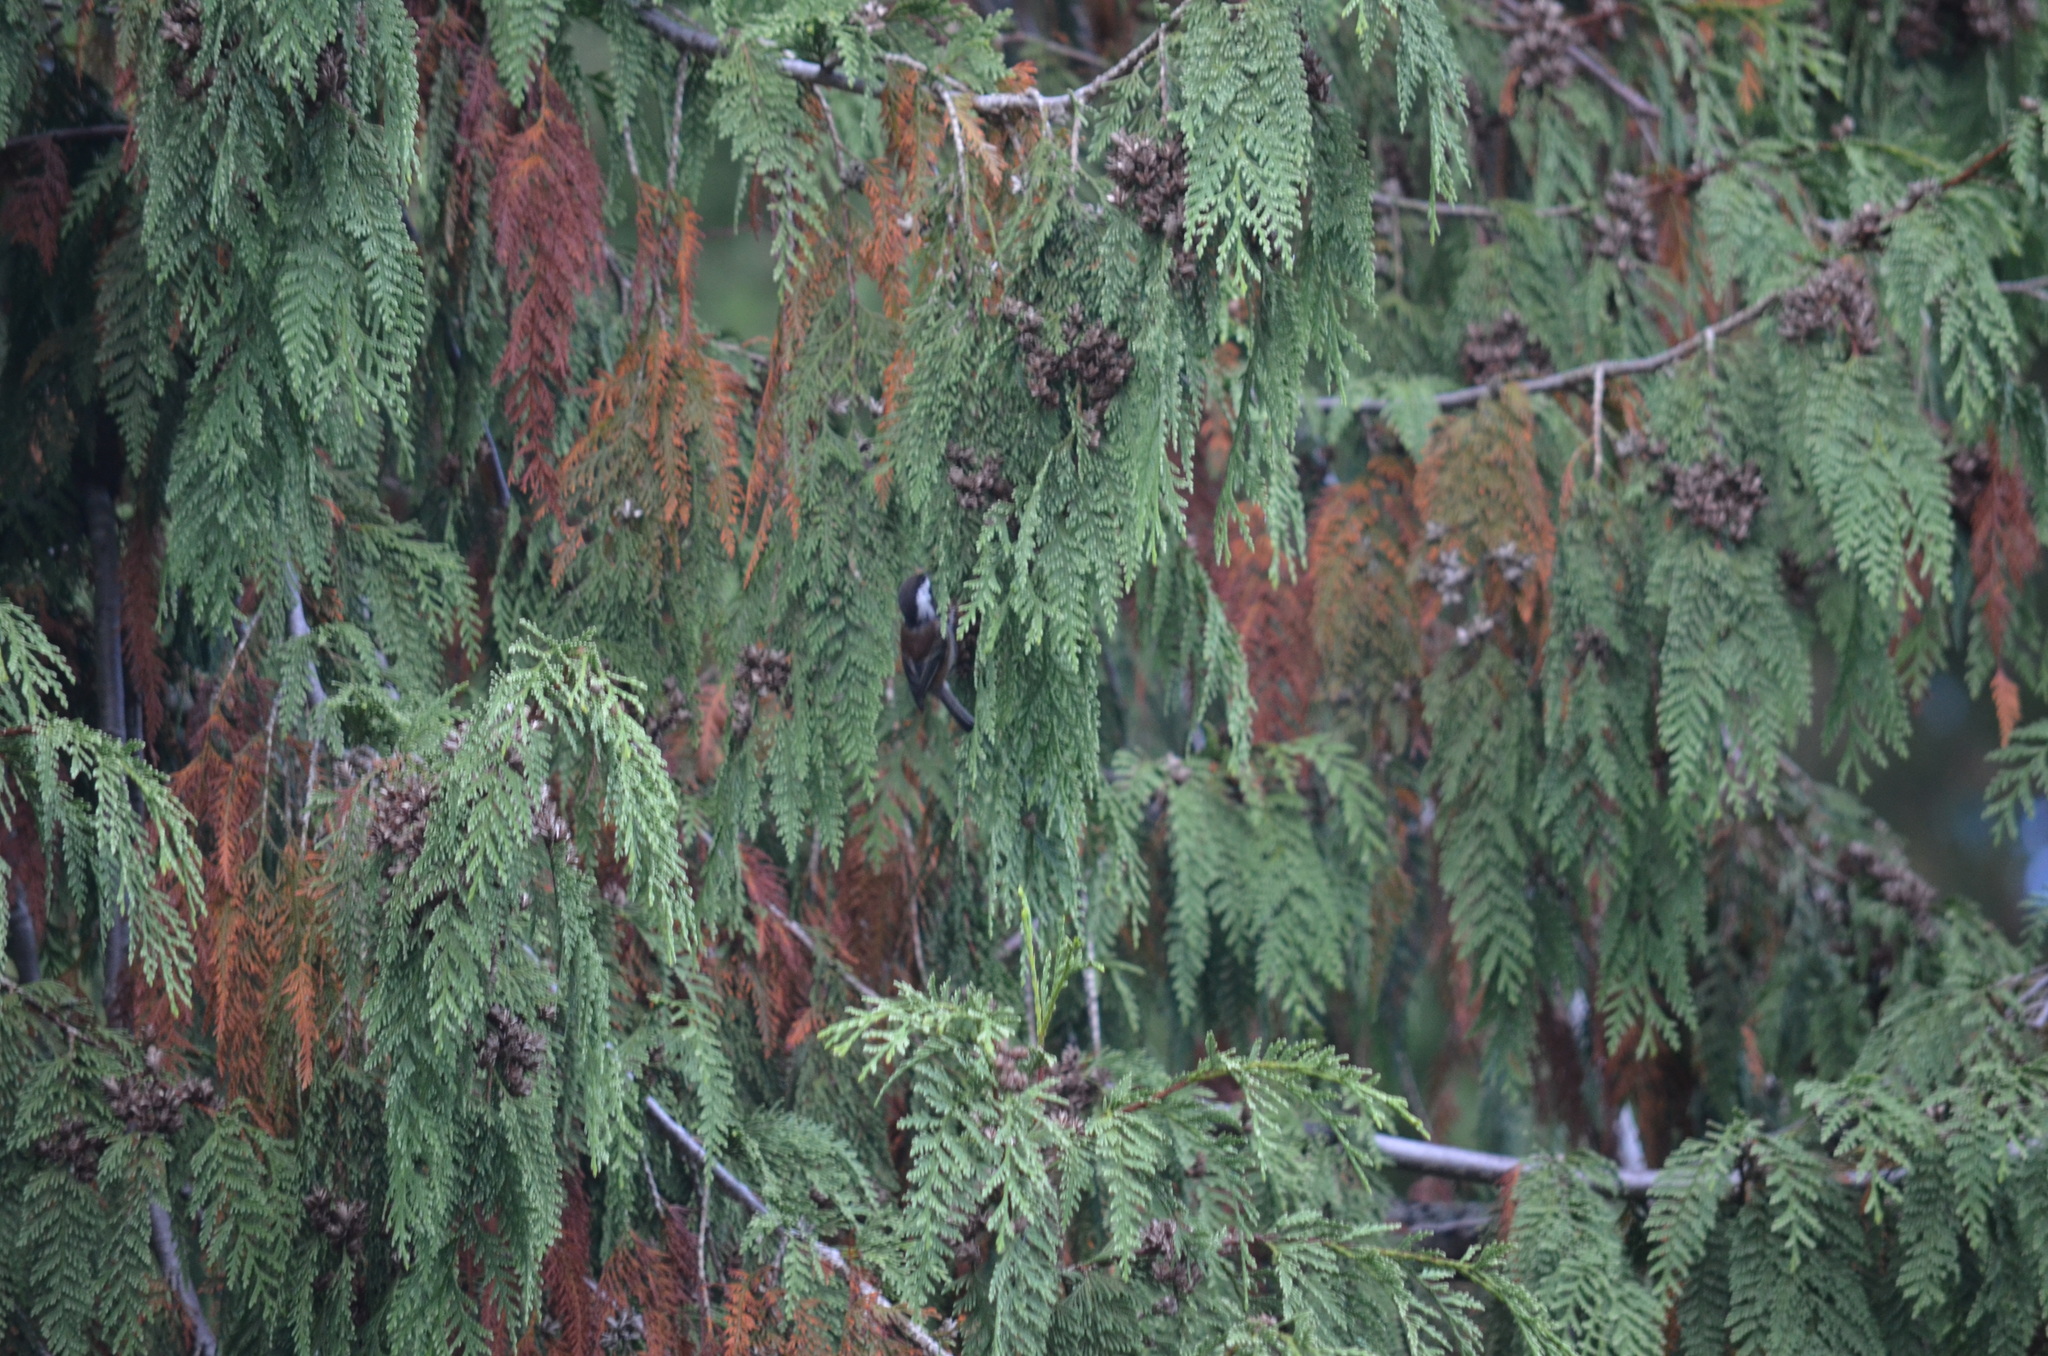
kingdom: Animalia
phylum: Chordata
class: Aves
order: Passeriformes
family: Paridae
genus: Poecile
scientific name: Poecile rufescens
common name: Chestnut-backed chickadee
